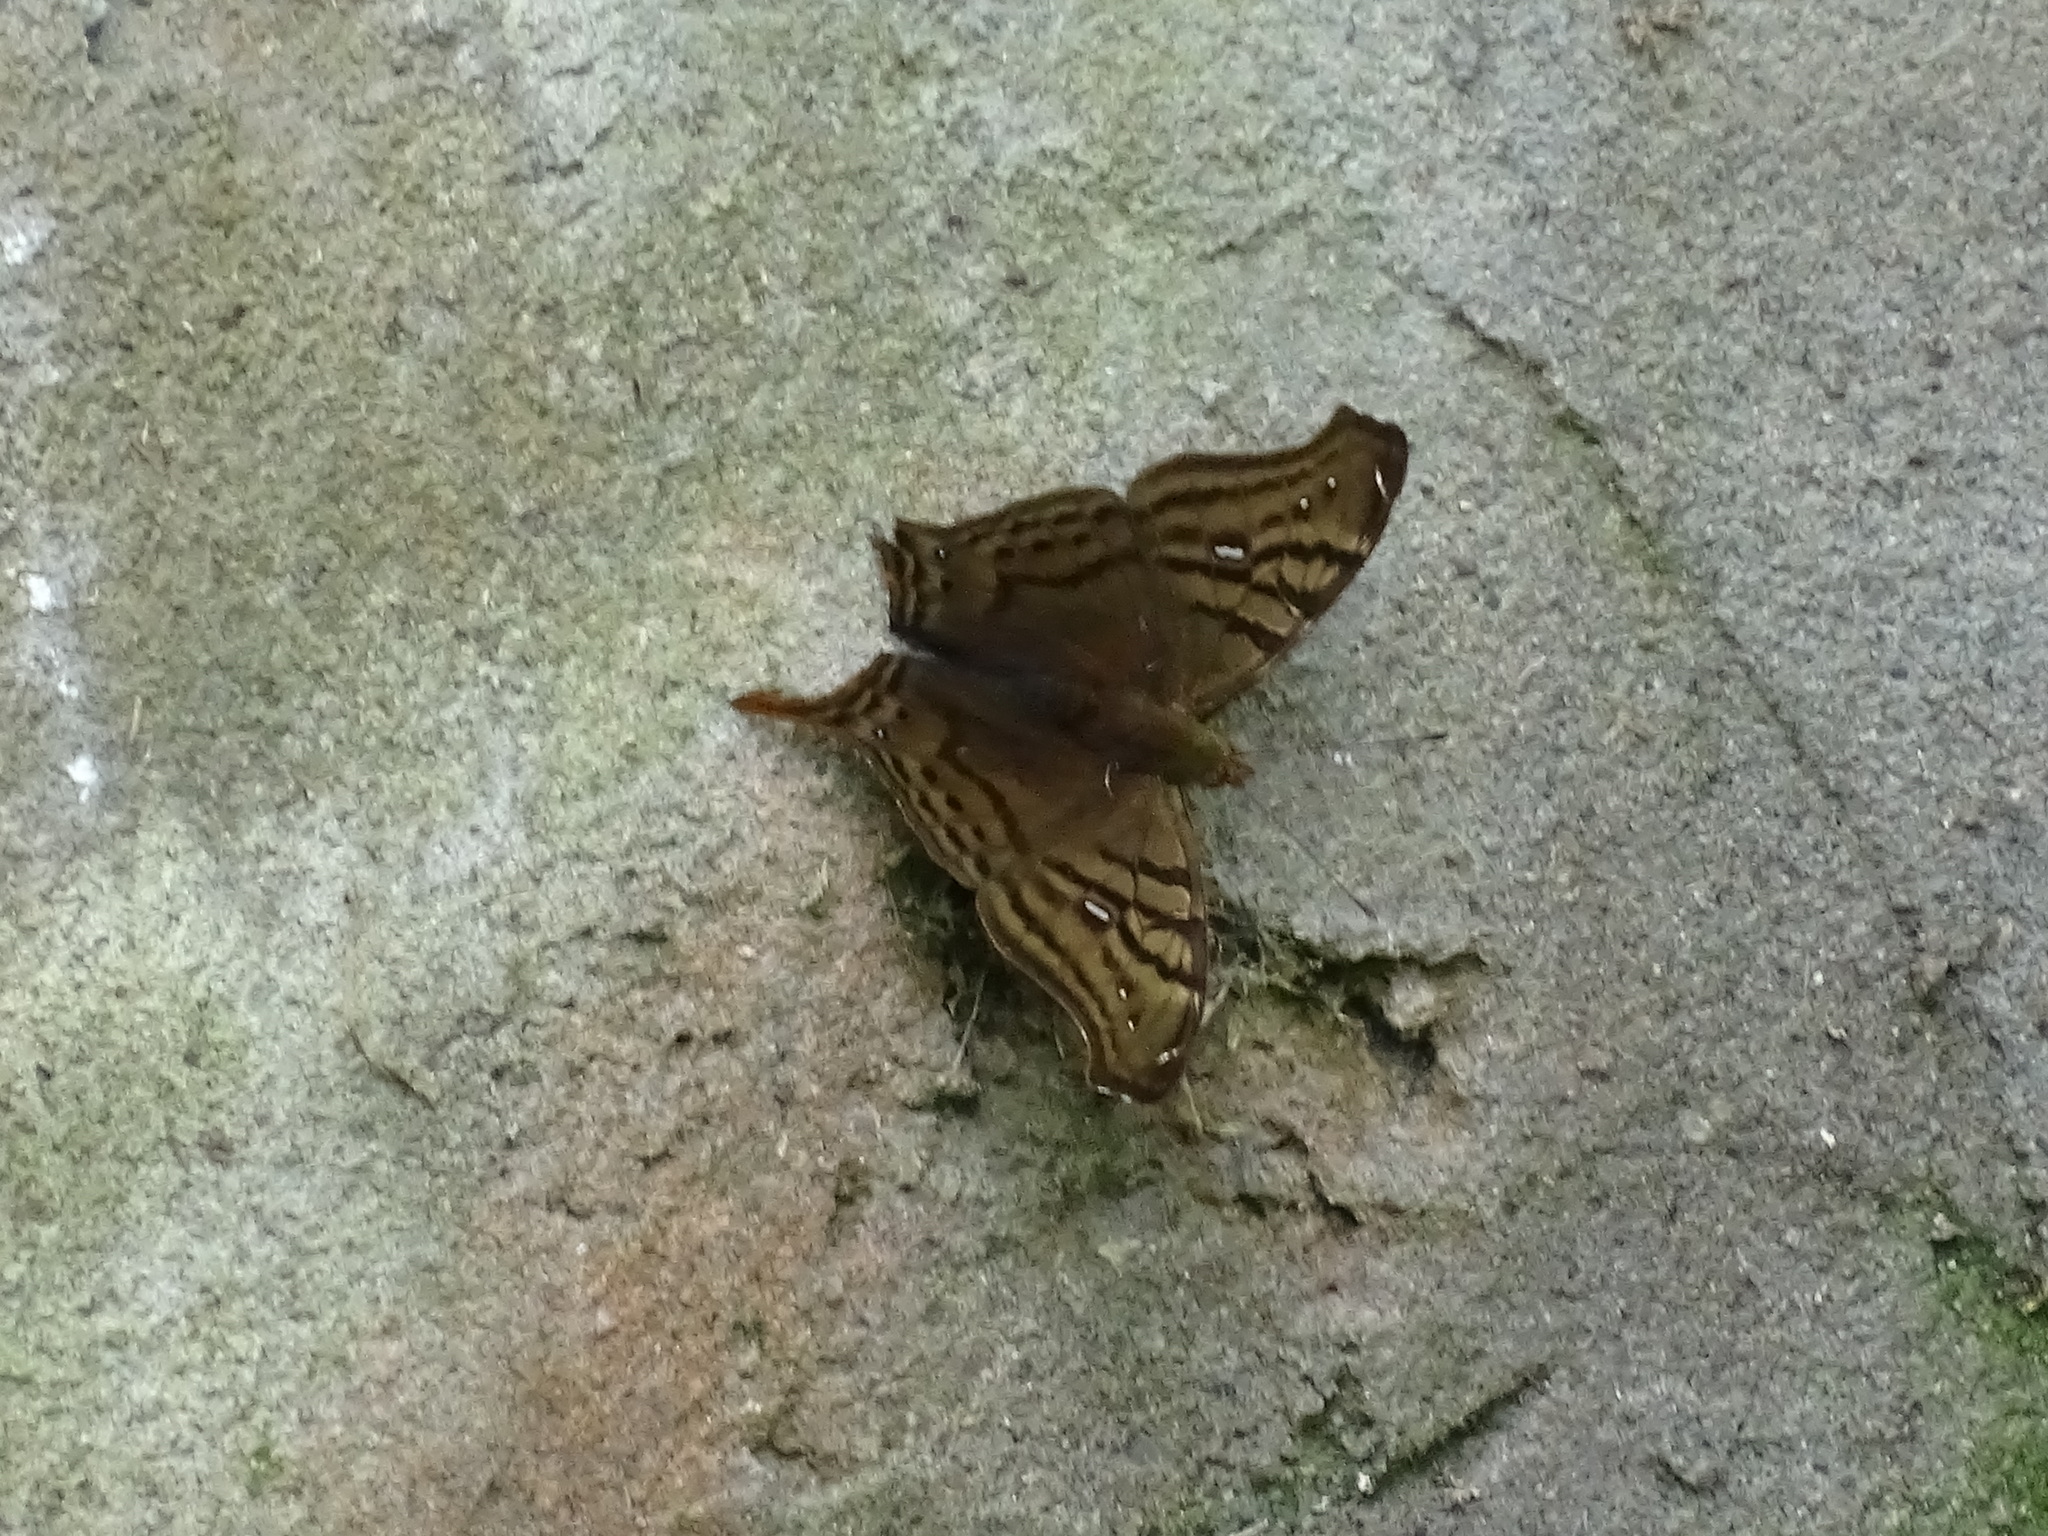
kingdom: Animalia
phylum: Arthropoda
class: Insecta
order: Lepidoptera
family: Nymphalidae
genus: Hypanartia
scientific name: Hypanartia dione
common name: Banded mapwing
